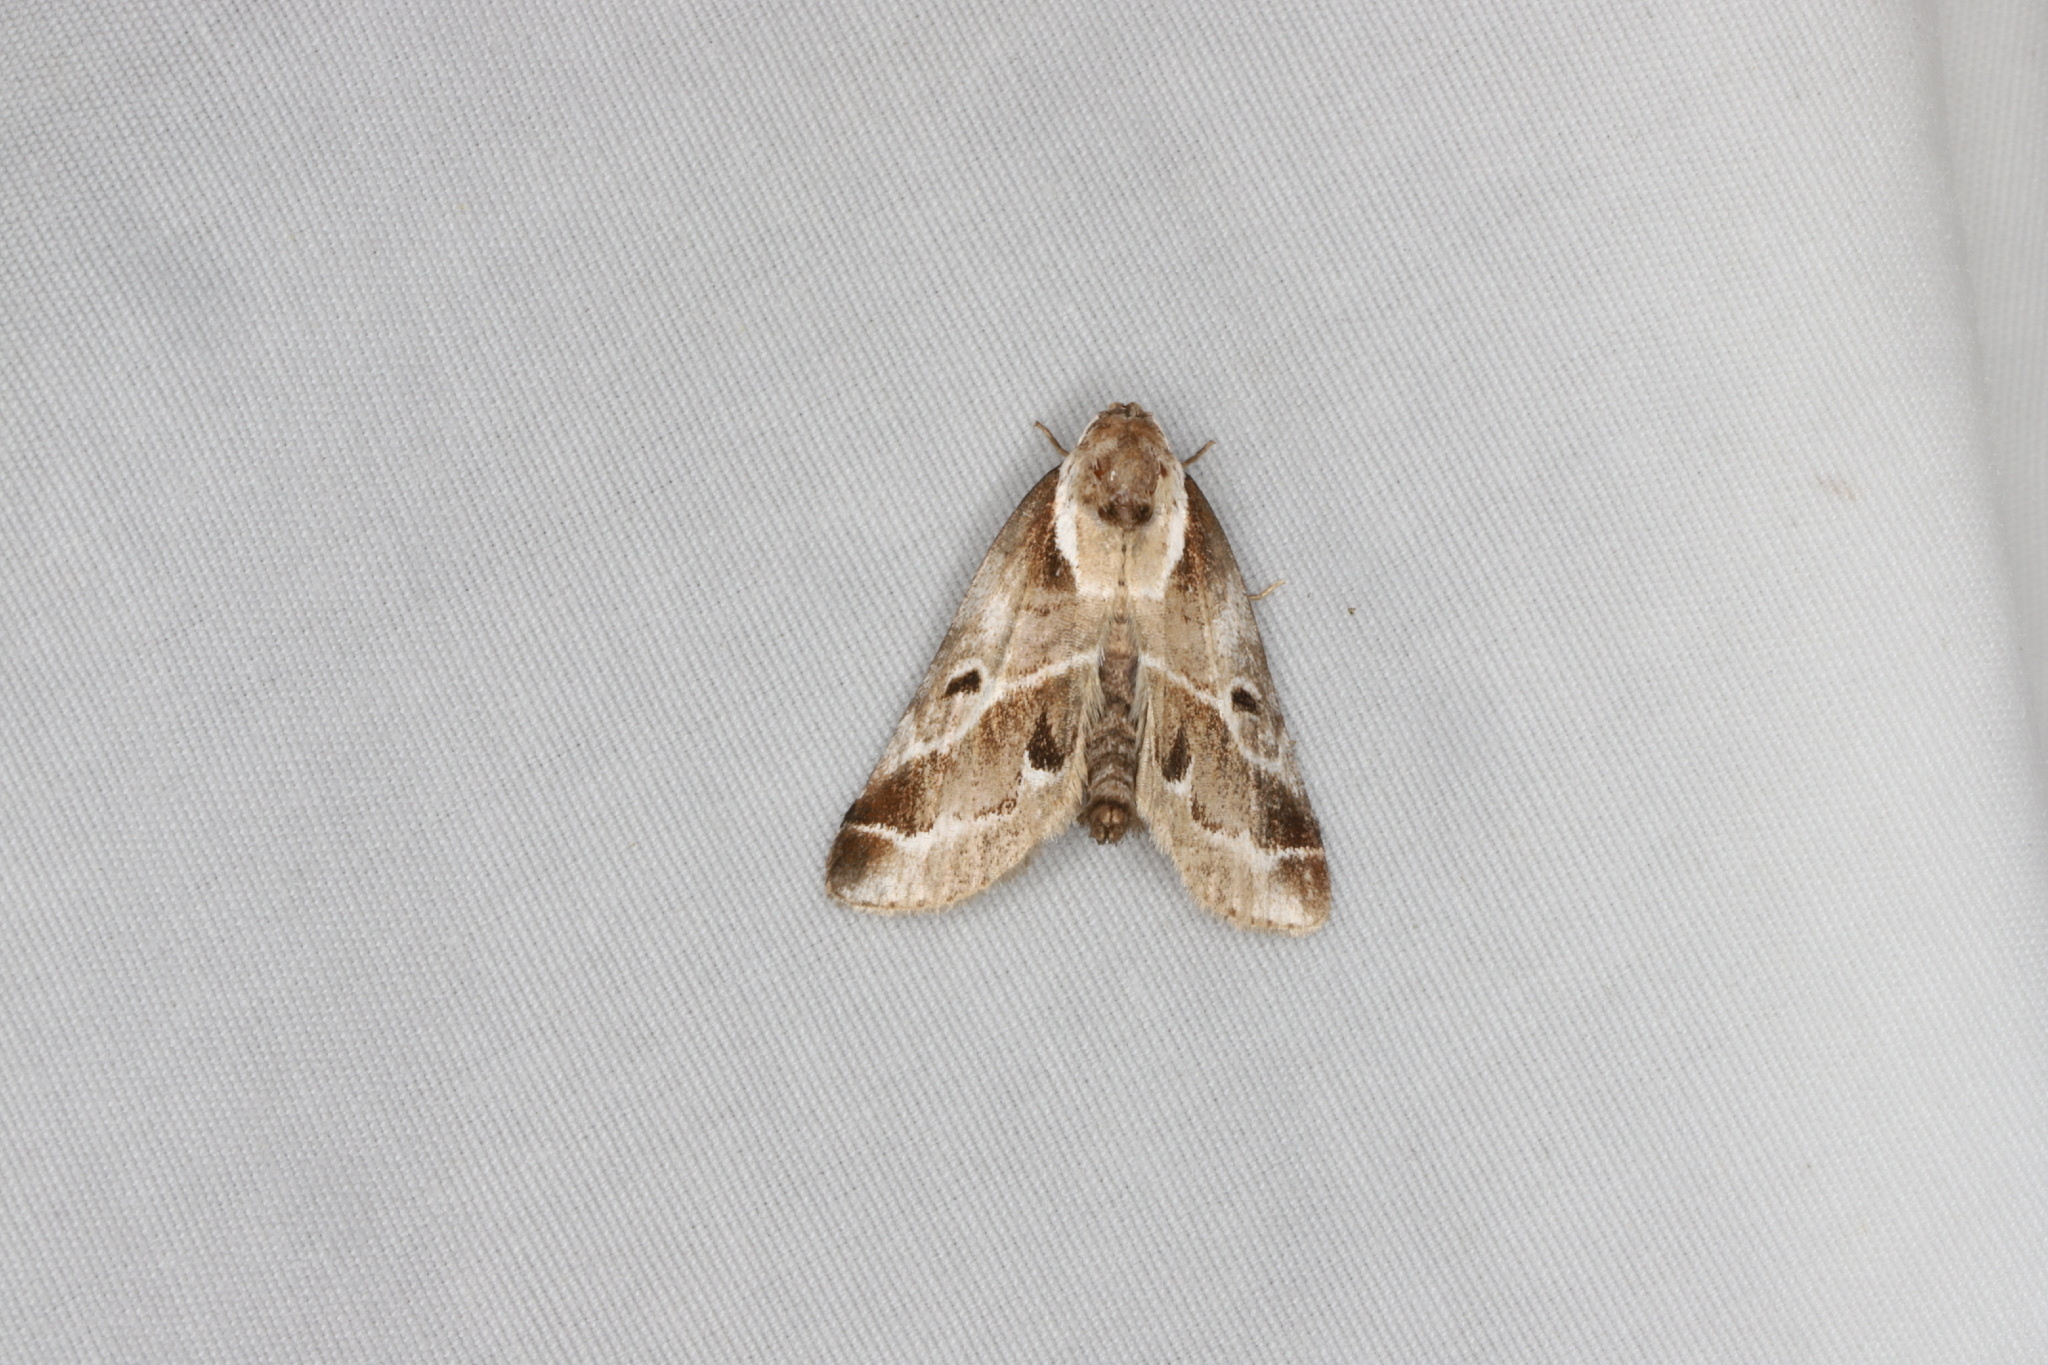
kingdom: Animalia
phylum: Arthropoda
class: Insecta
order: Lepidoptera
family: Nolidae
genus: Baileya
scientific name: Baileya doubledayi
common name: Doubleday's baileya moth
